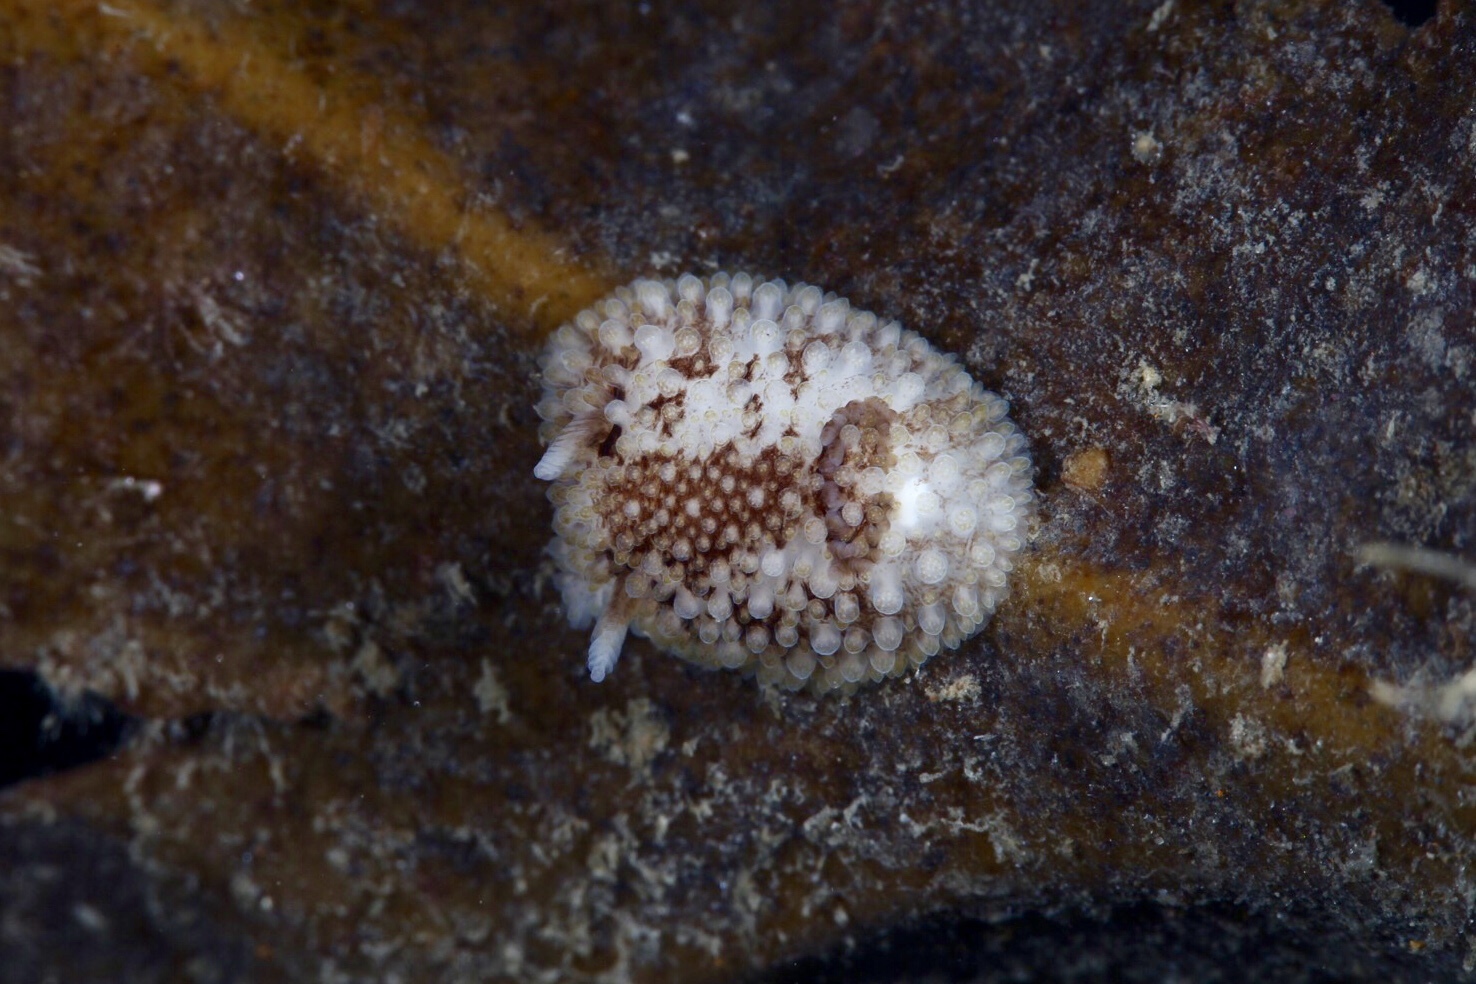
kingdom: Animalia
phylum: Mollusca
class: Gastropoda
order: Nudibranchia
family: Onchidorididae
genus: Onchidoris
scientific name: Onchidoris bilamellata
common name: Barnacle-eating onchidoris
